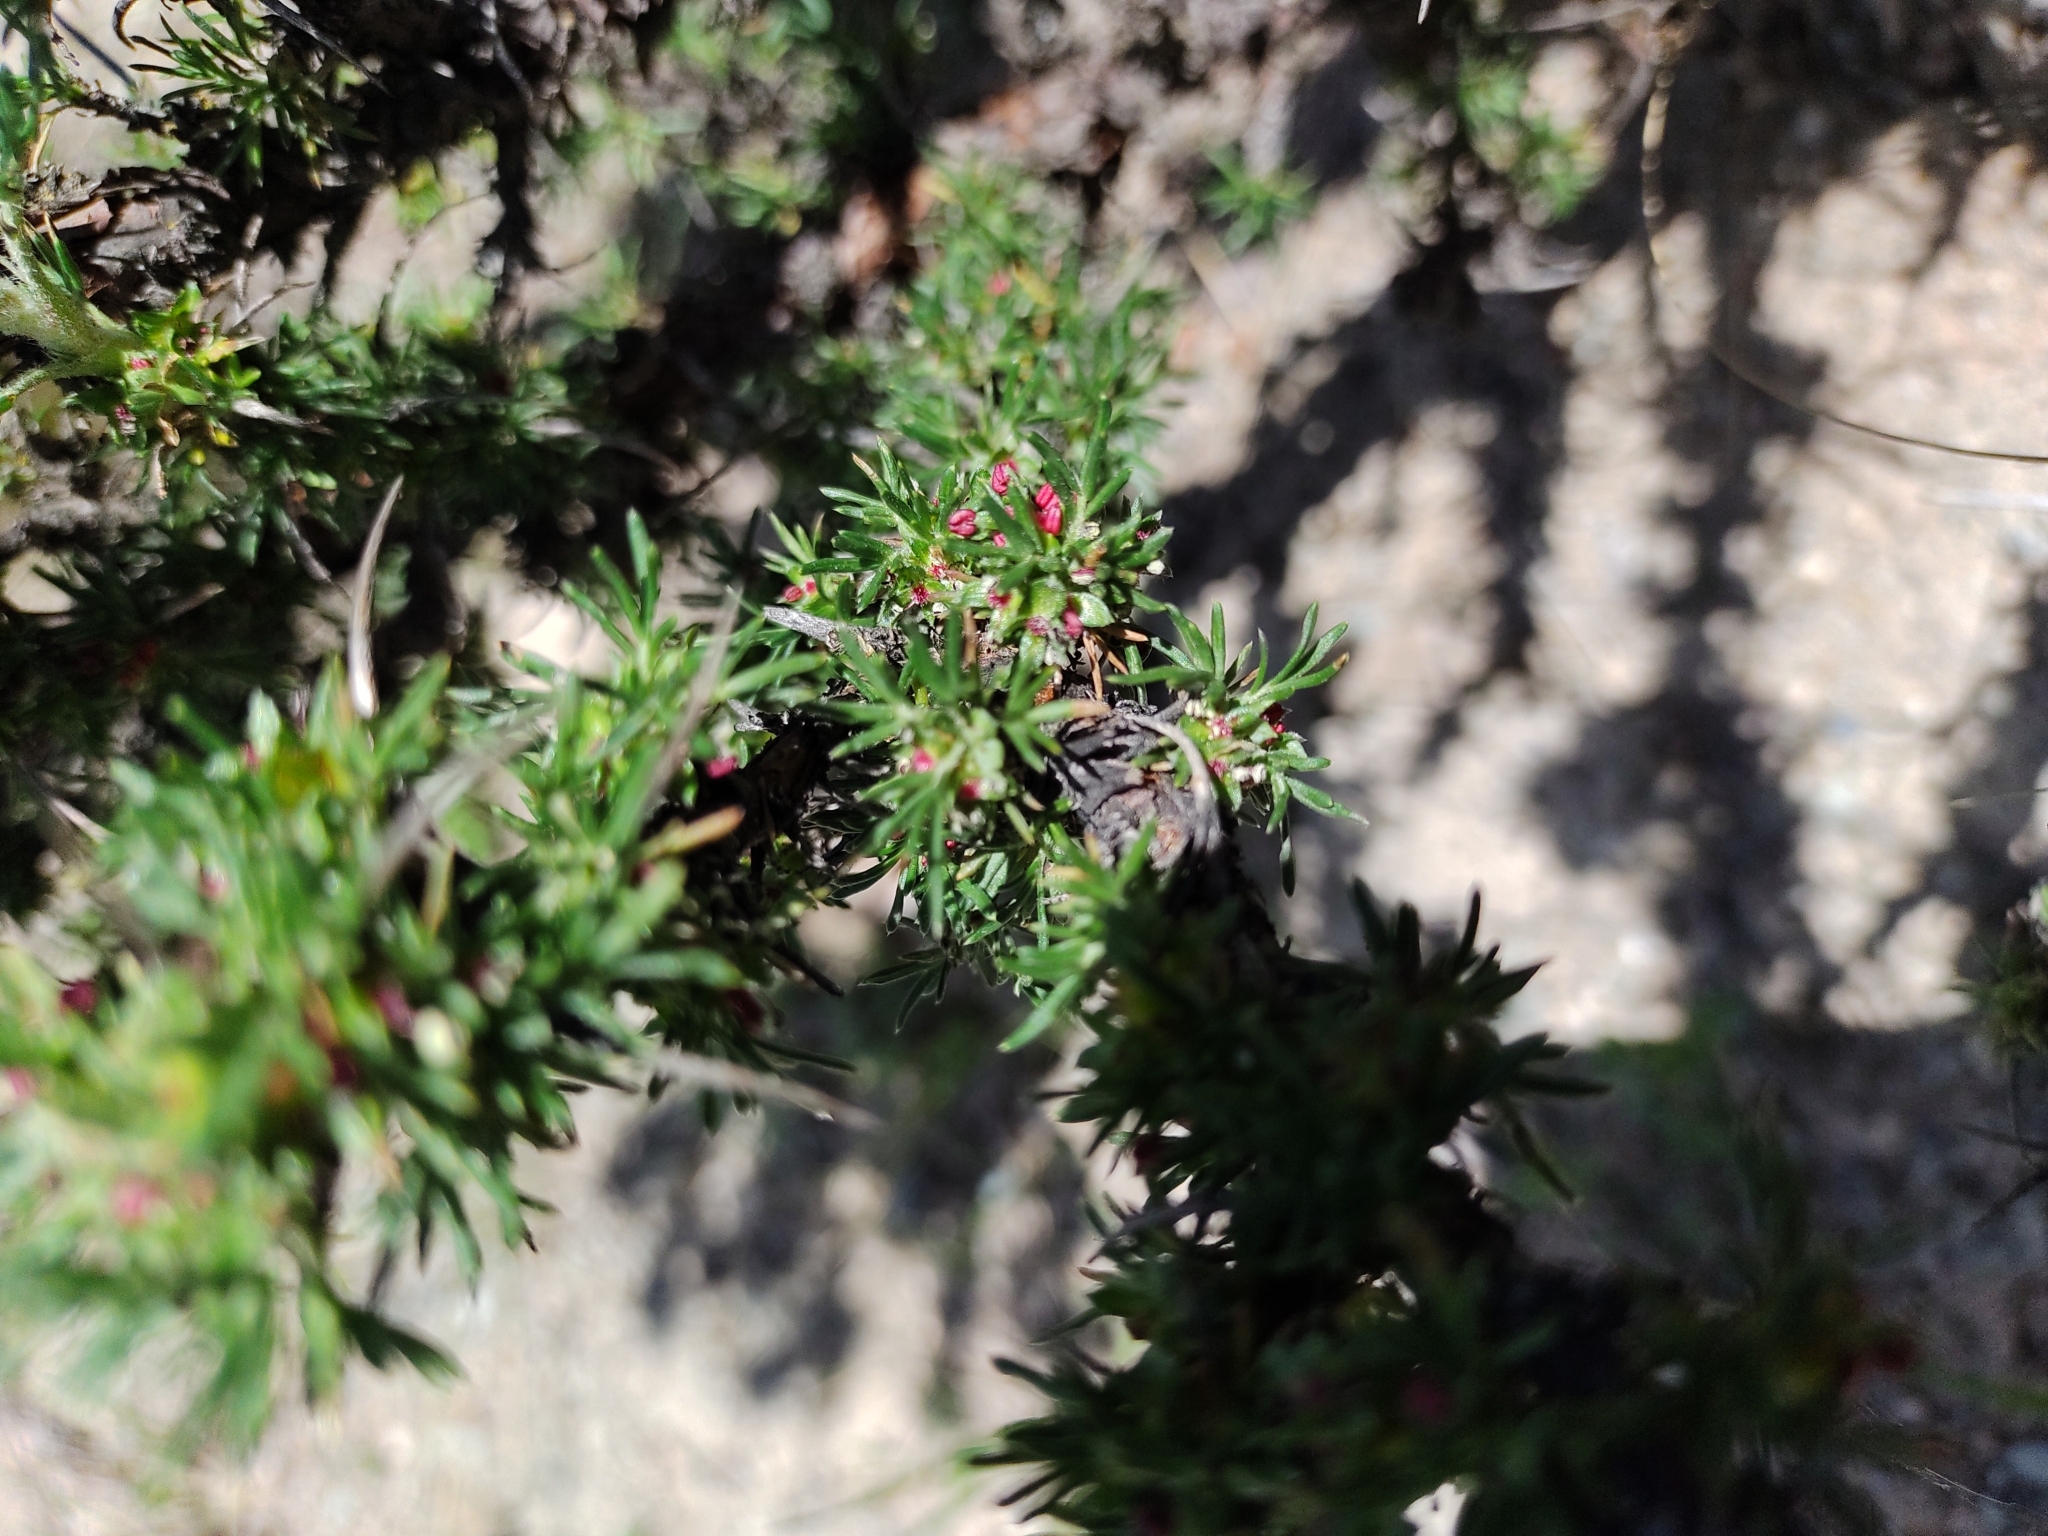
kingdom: Plantae
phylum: Tracheophyta
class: Magnoliopsida
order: Rosales
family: Rosaceae
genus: Margyricarpus
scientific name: Margyricarpus pinnatus
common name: Pearlfruit
